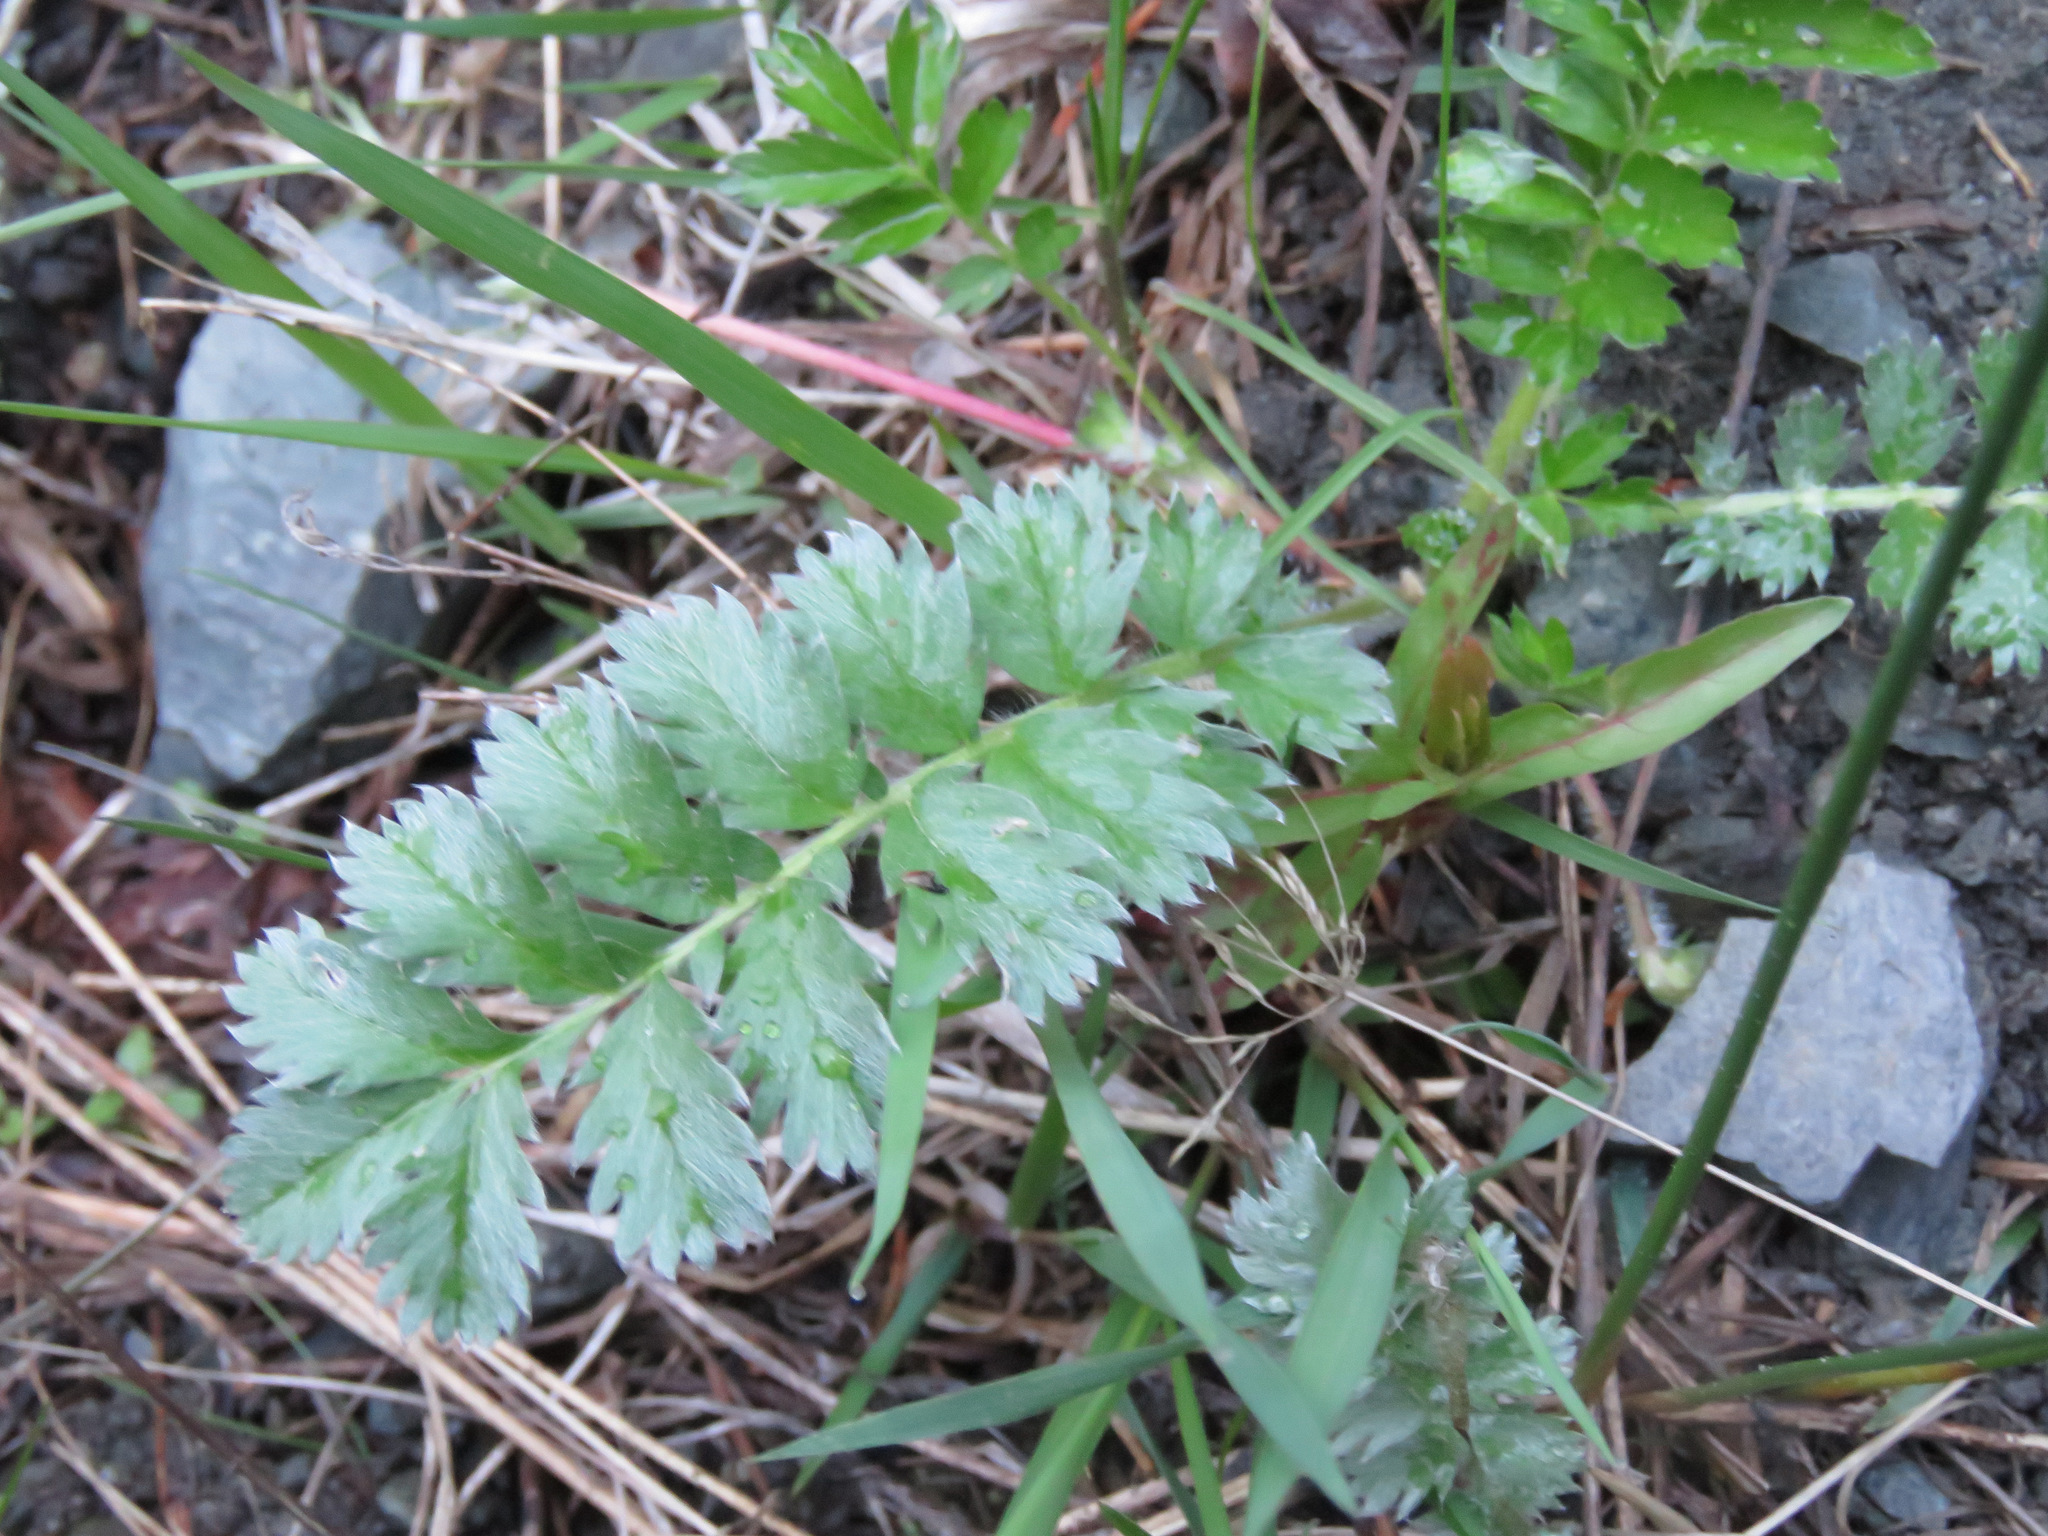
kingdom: Plantae
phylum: Tracheophyta
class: Magnoliopsida
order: Rosales
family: Rosaceae
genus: Argentina
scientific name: Argentina anserina
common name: Common silverweed
